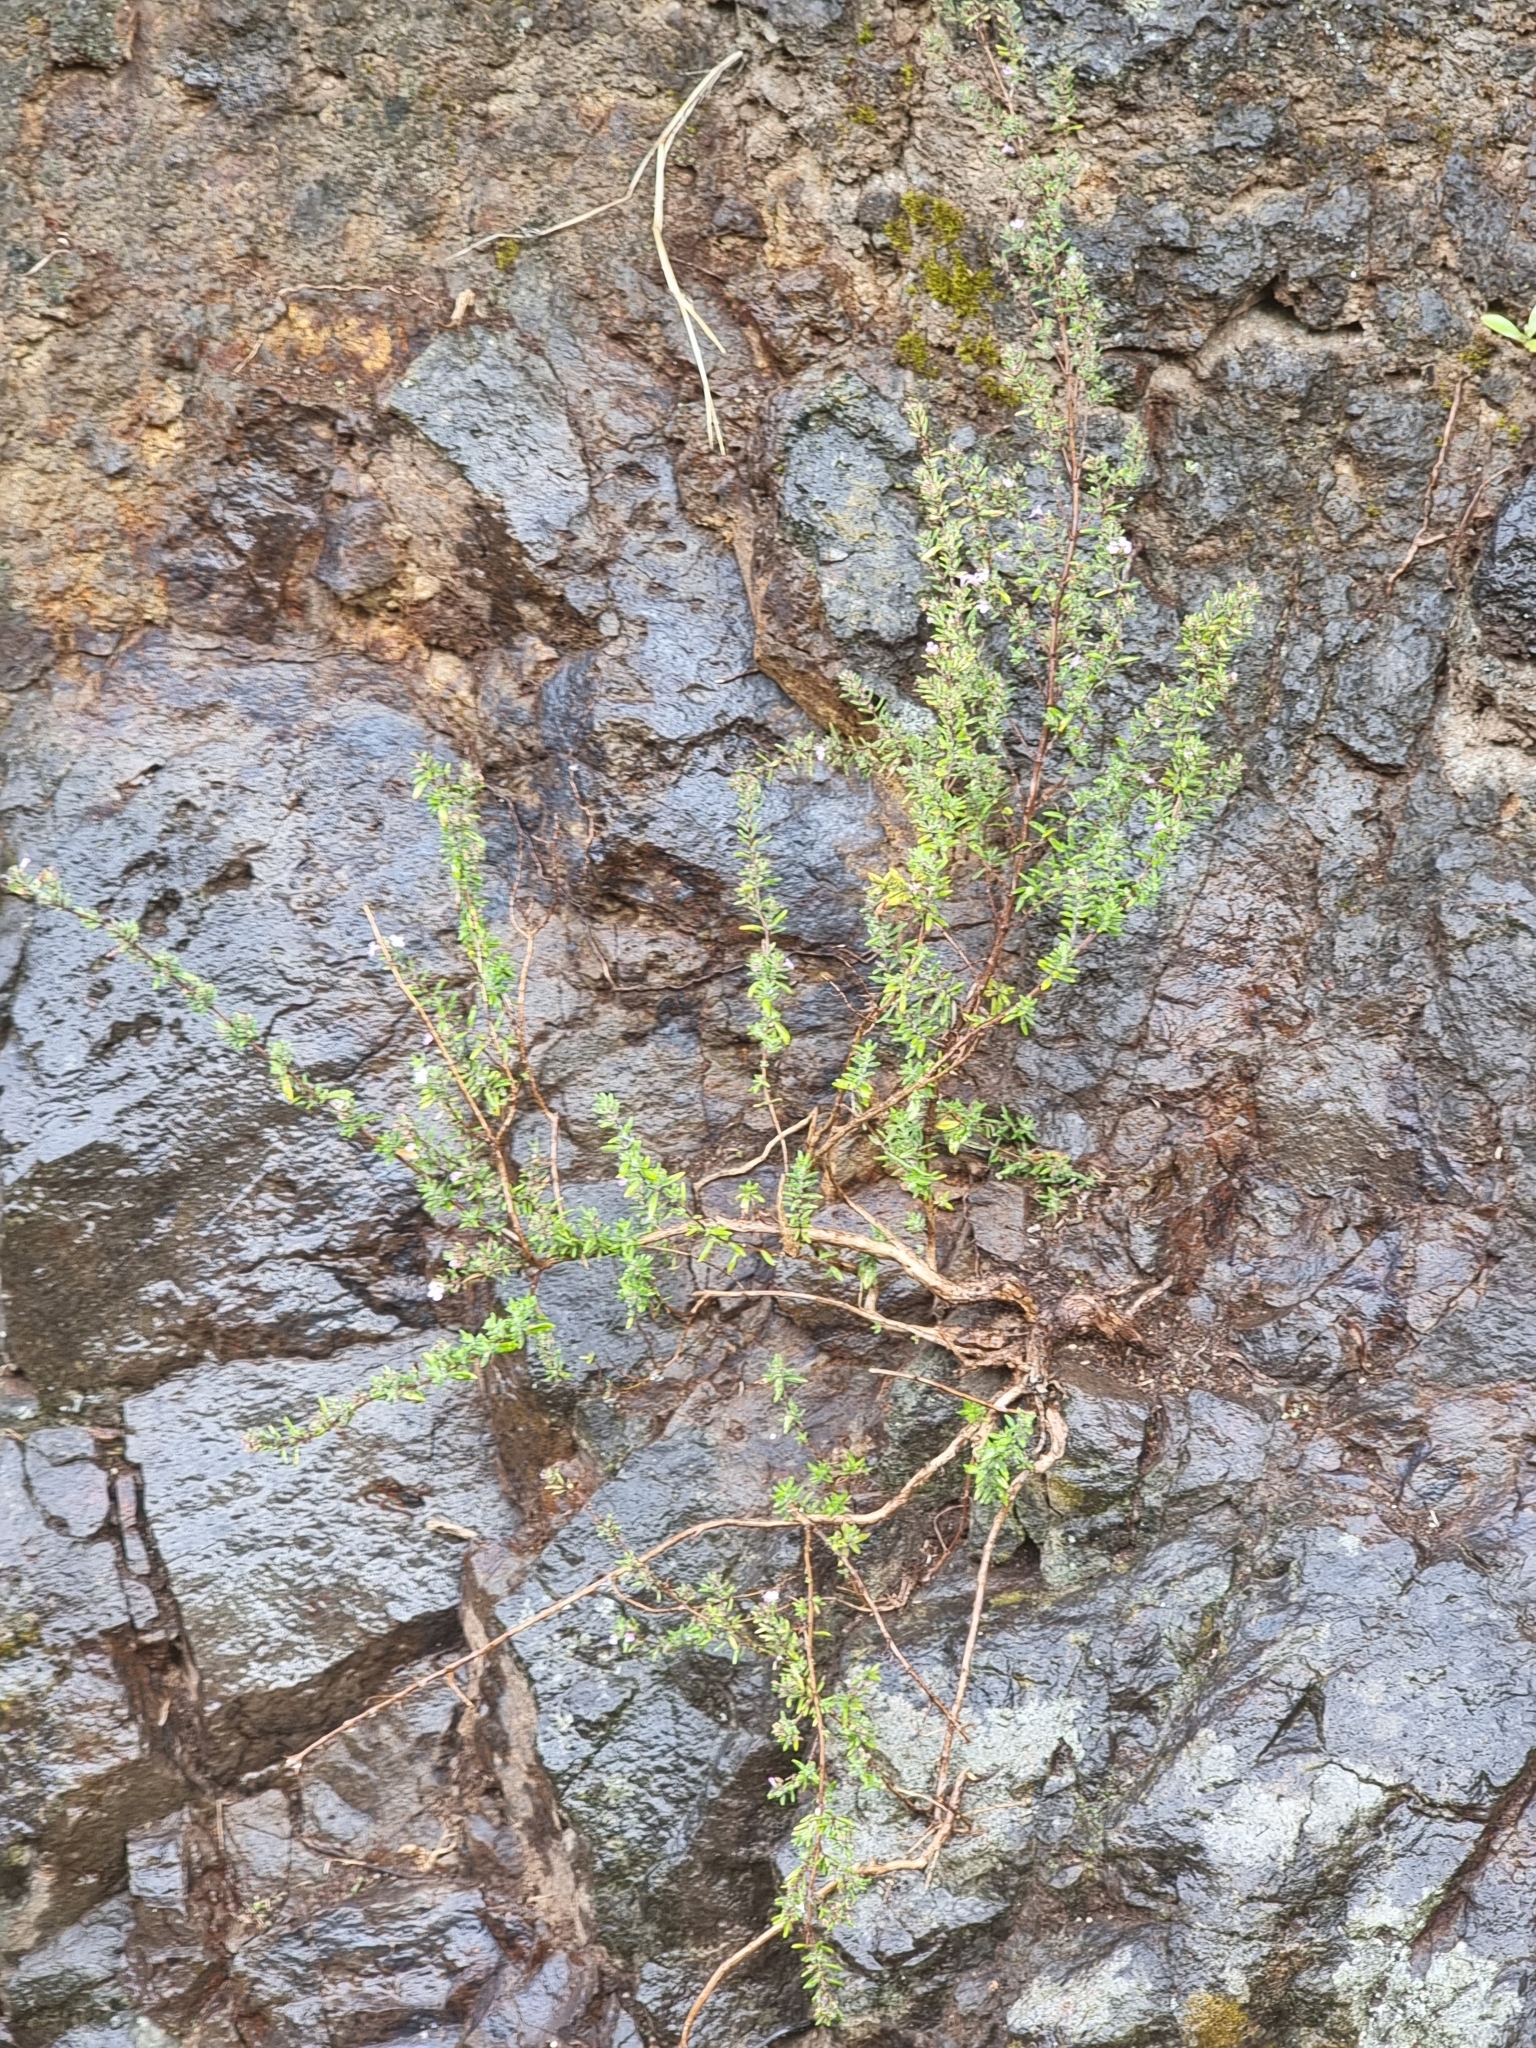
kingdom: Plantae
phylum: Tracheophyta
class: Magnoliopsida
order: Lamiales
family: Lamiaceae
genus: Micromeria
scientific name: Micromeria maderensis
